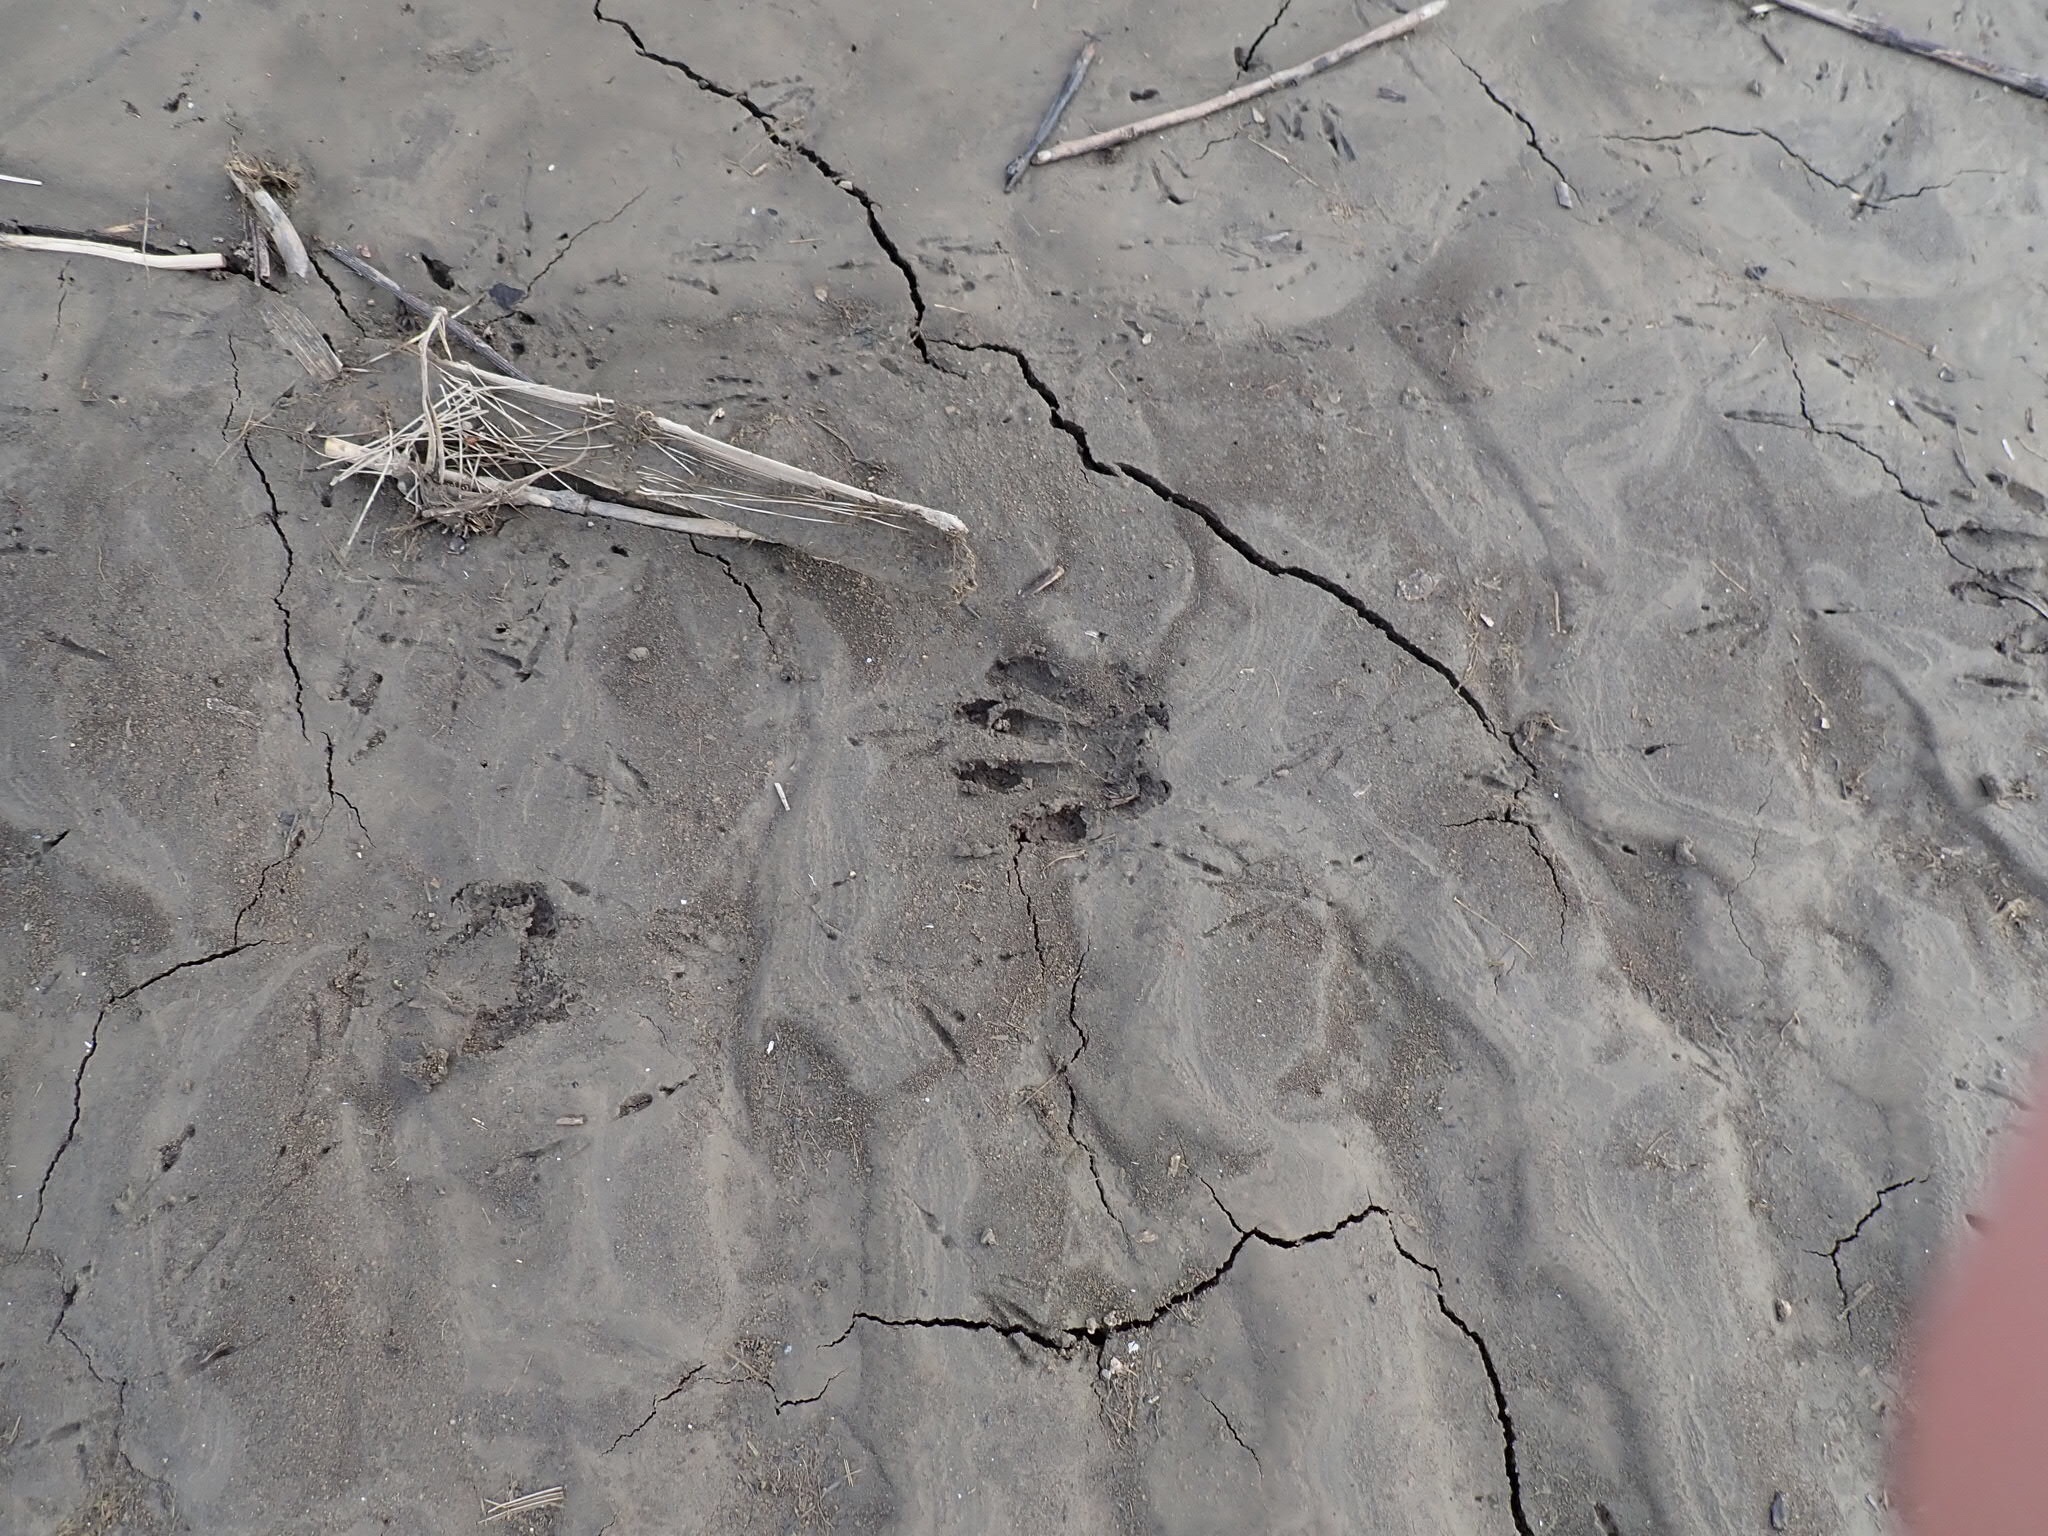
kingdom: Animalia
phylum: Chordata
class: Mammalia
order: Carnivora
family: Procyonidae
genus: Procyon
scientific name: Procyon lotor
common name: Raccoon
